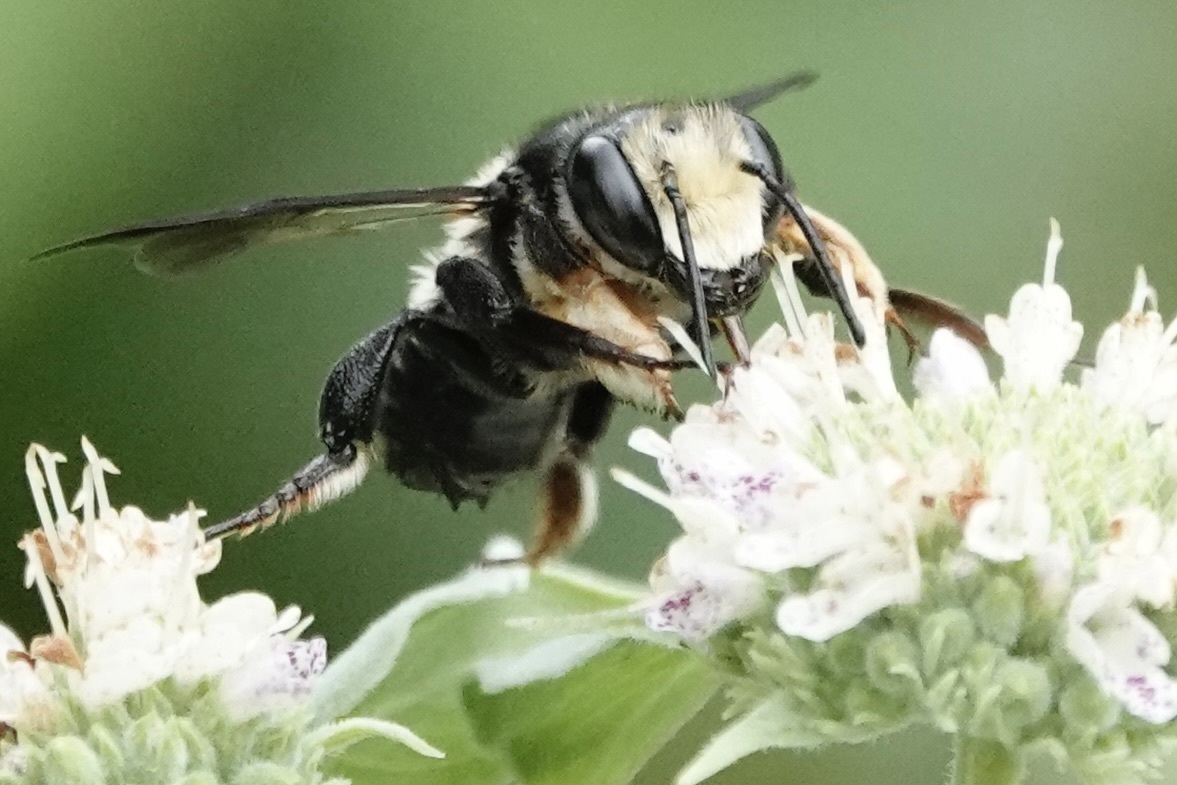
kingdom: Animalia
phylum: Arthropoda
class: Insecta
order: Hymenoptera
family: Megachilidae
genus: Megachile
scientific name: Megachile xylocopoides
